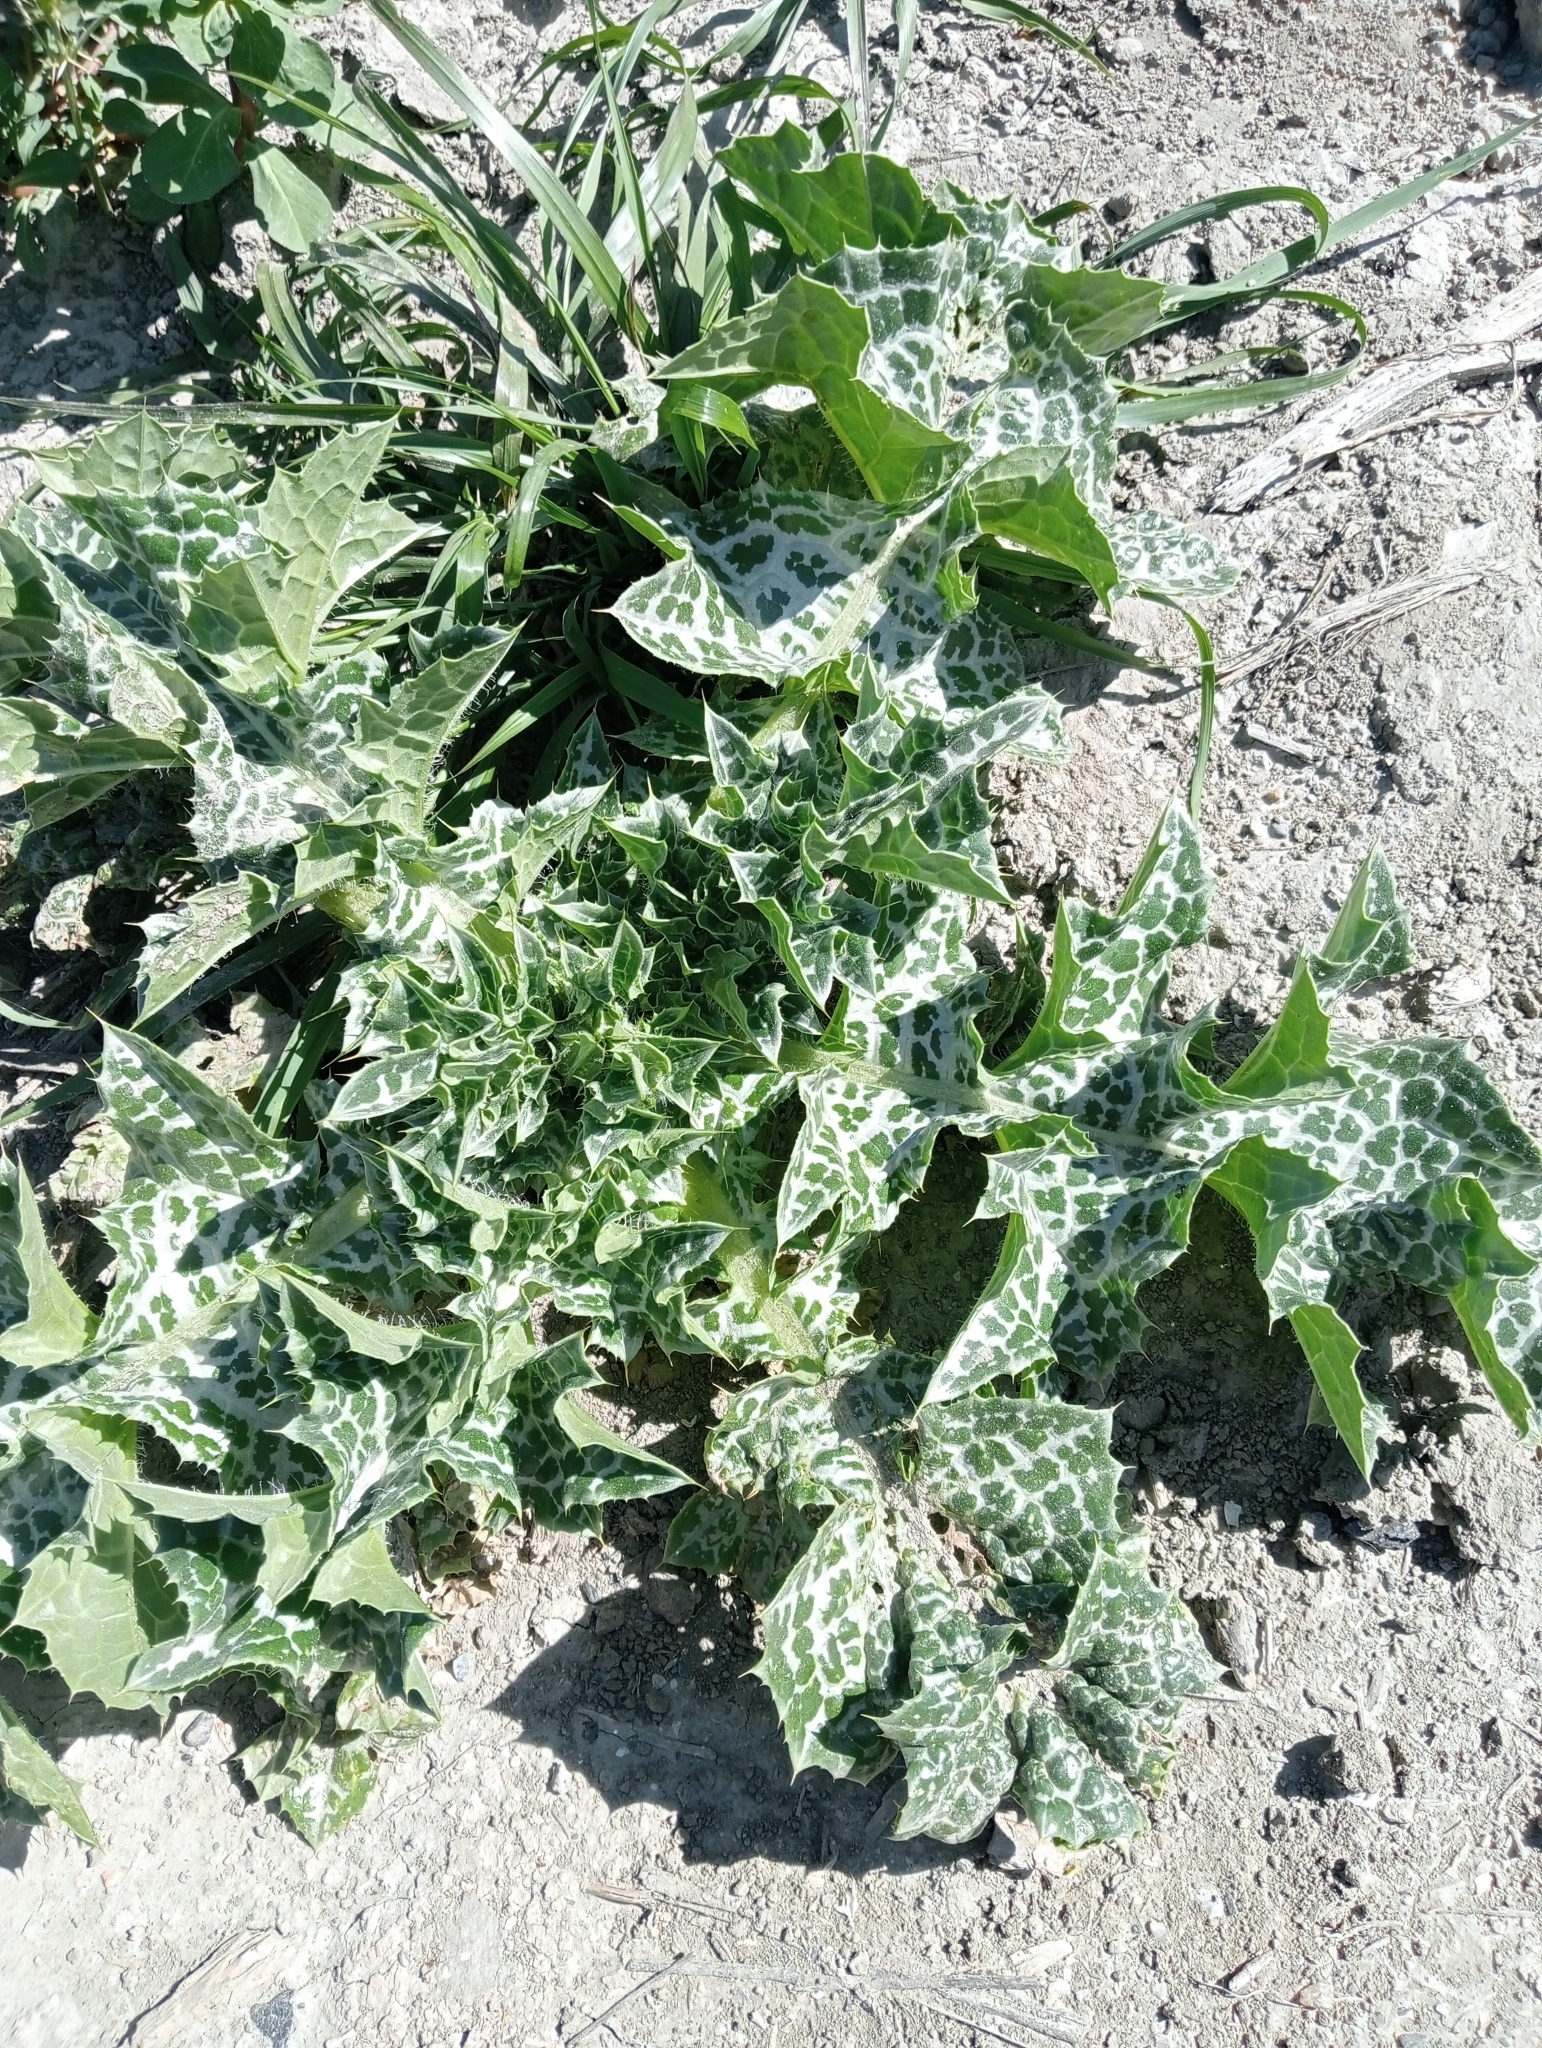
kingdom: Plantae
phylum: Tracheophyta
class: Magnoliopsida
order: Asterales
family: Asteraceae
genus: Silybum
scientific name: Silybum marianum
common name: Milk thistle
